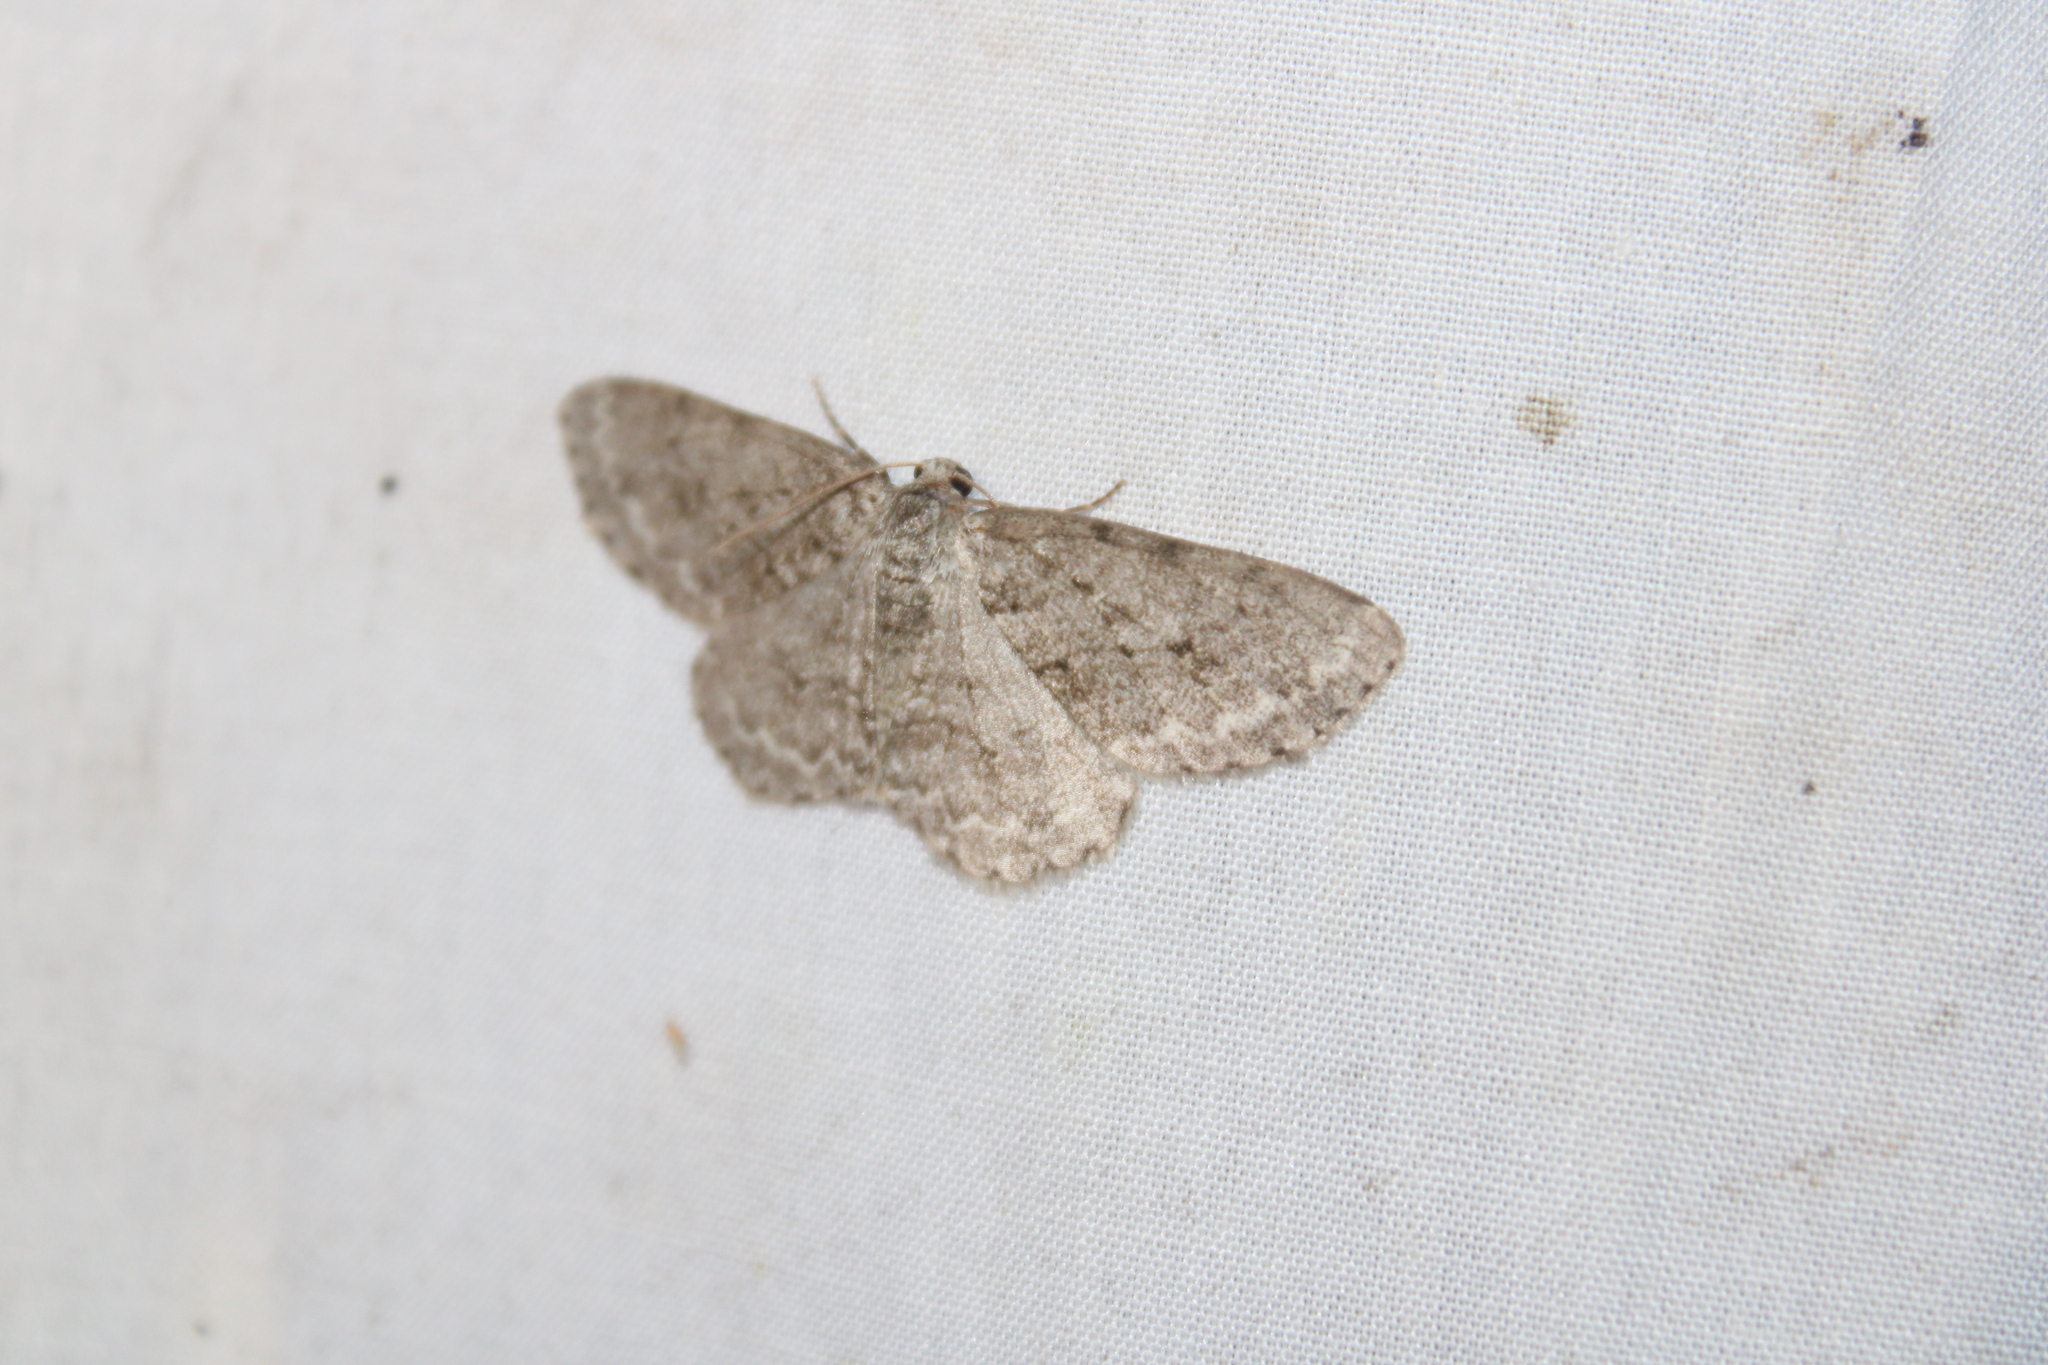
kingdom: Animalia
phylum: Arthropoda
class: Insecta
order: Lepidoptera
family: Geometridae
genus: Ectropis
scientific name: Ectropis crepuscularia
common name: Engrailed
